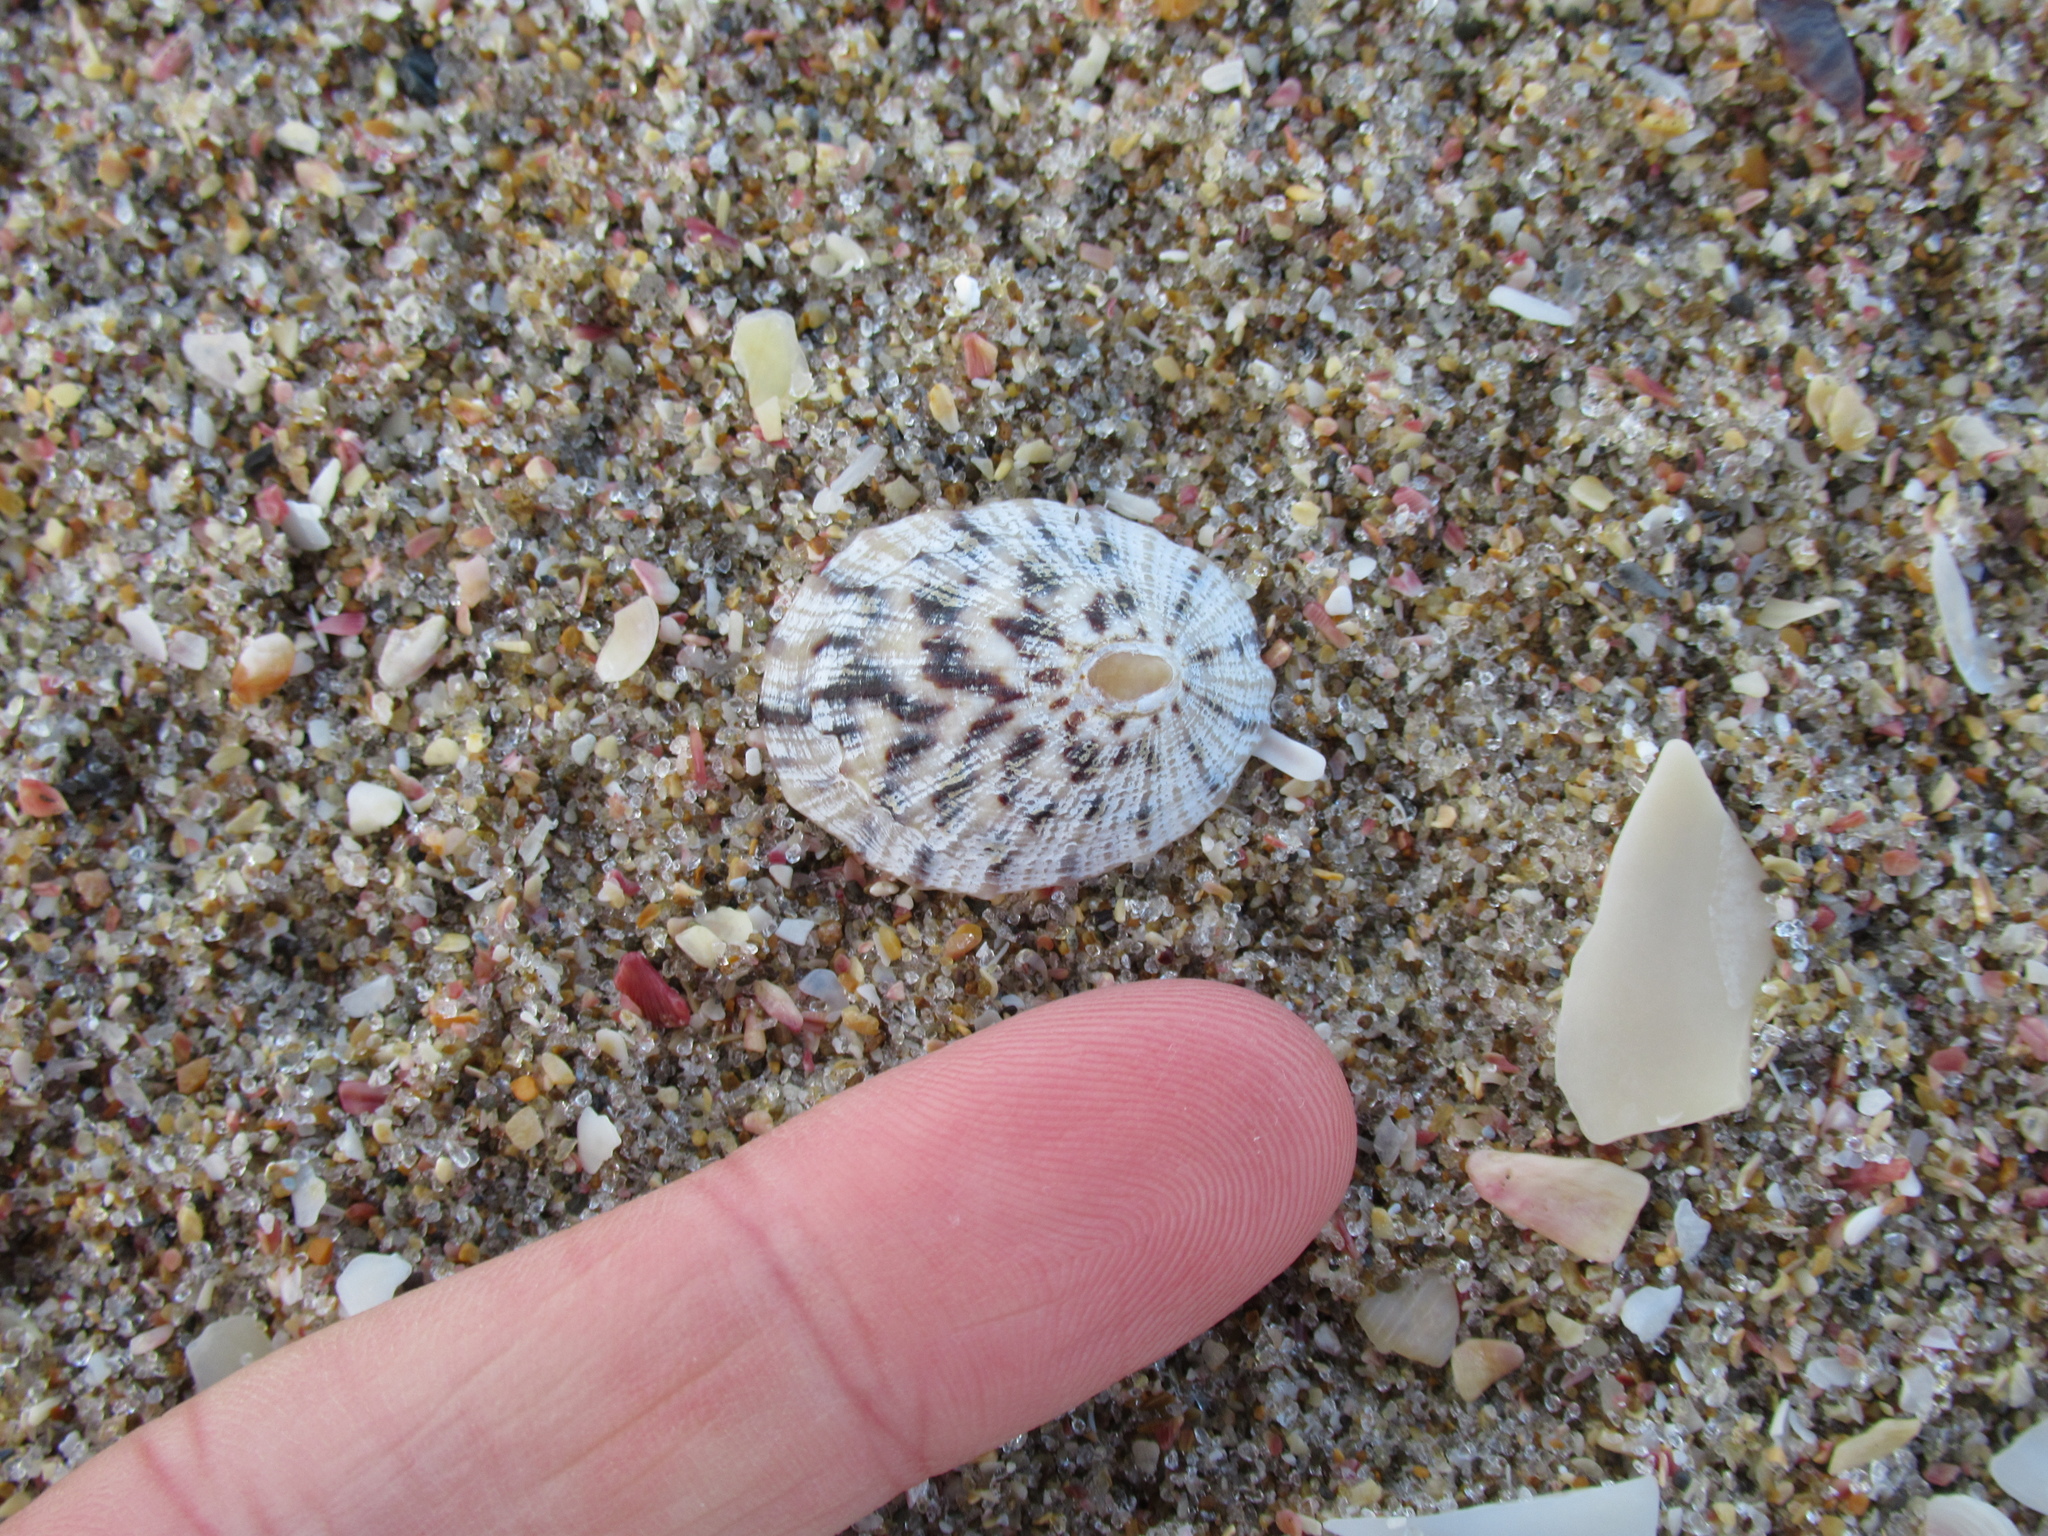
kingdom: Animalia
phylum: Mollusca
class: Gastropoda
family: Nacellidae
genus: Cellana
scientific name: Cellana radians
